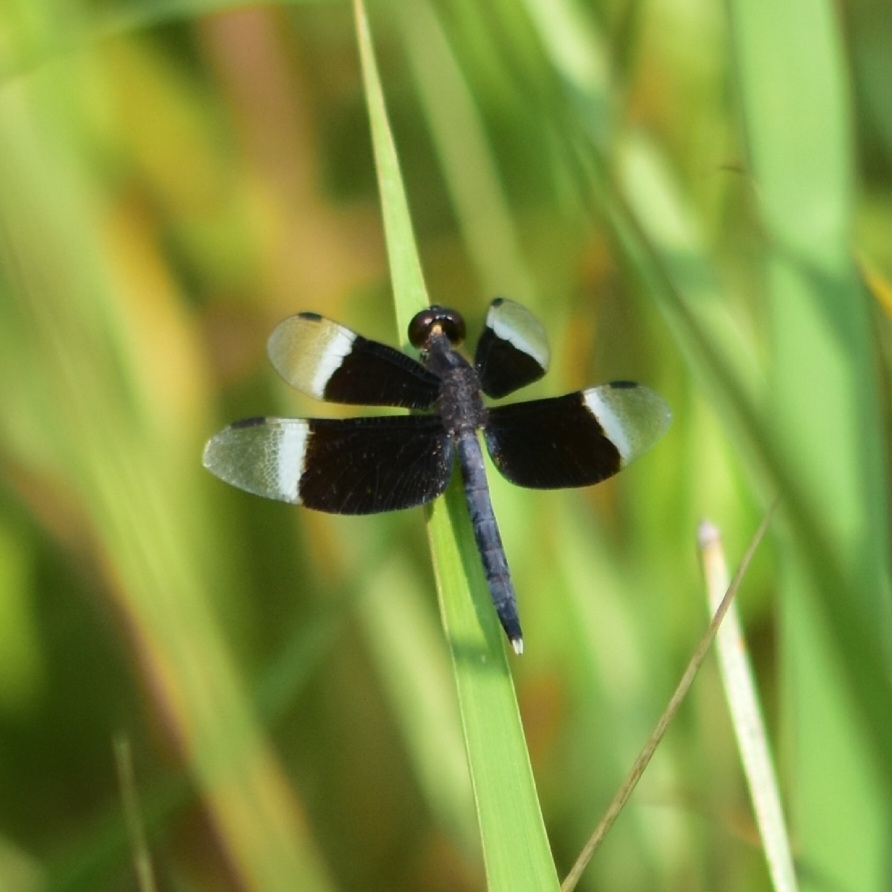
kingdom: Animalia
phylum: Arthropoda
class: Insecta
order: Odonata
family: Libellulidae
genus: Neurothemis
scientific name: Neurothemis tullia
